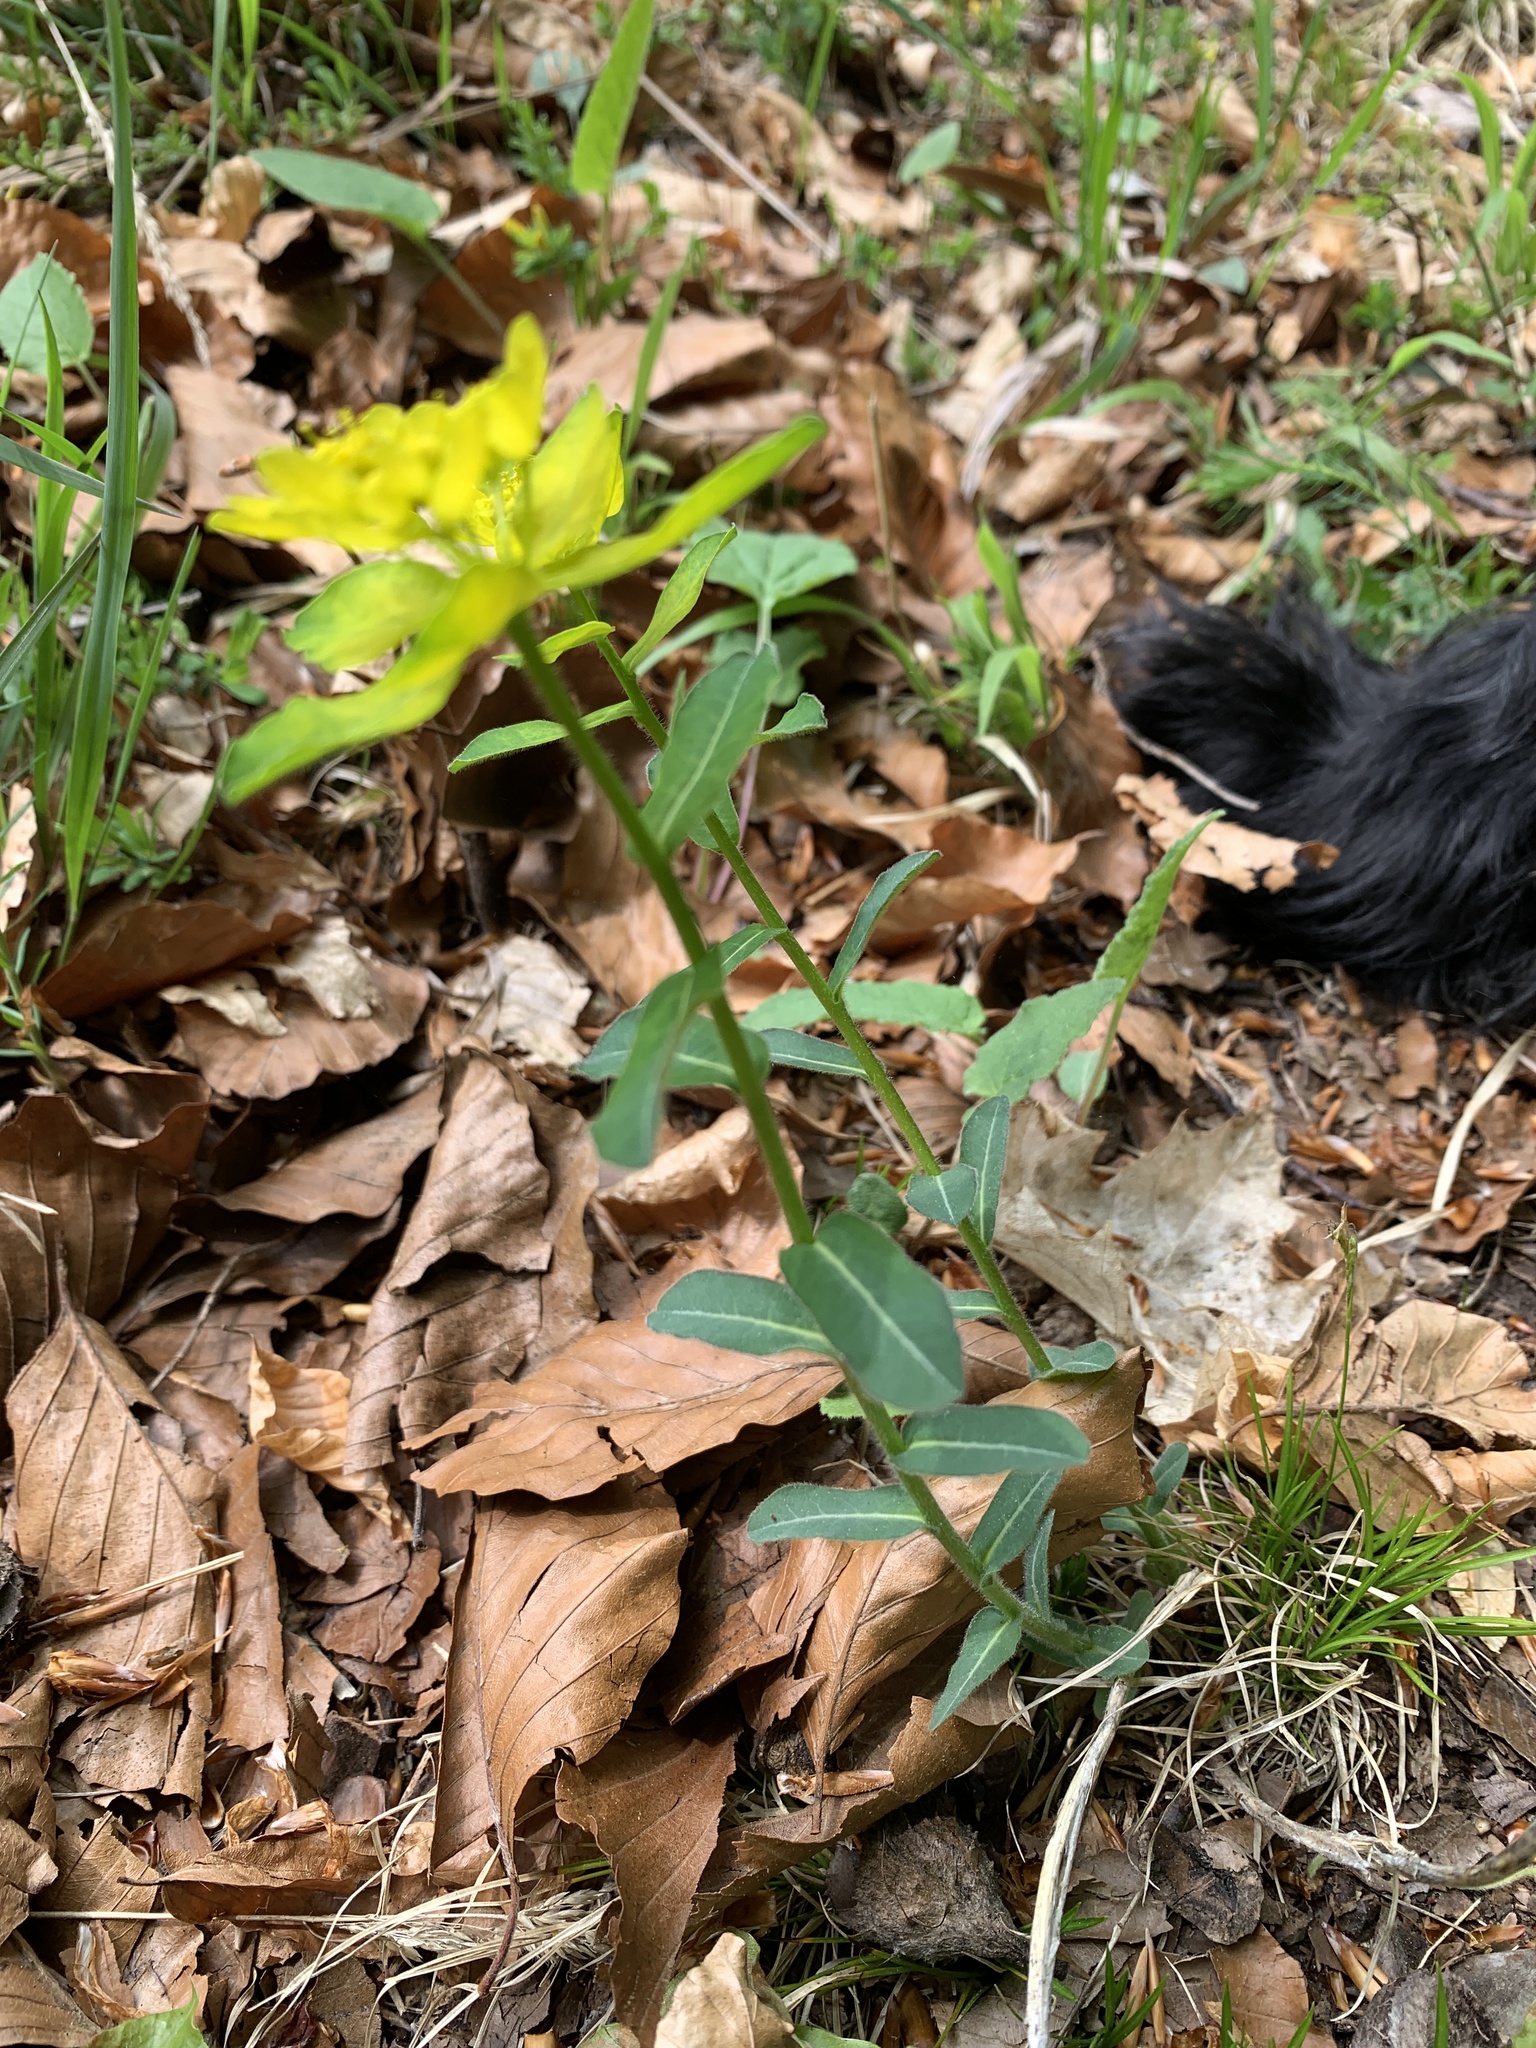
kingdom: Plantae
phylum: Tracheophyta
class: Magnoliopsida
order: Malpighiales
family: Euphorbiaceae
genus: Euphorbia
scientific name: Euphorbia epithymoides
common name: Cushion spurge
